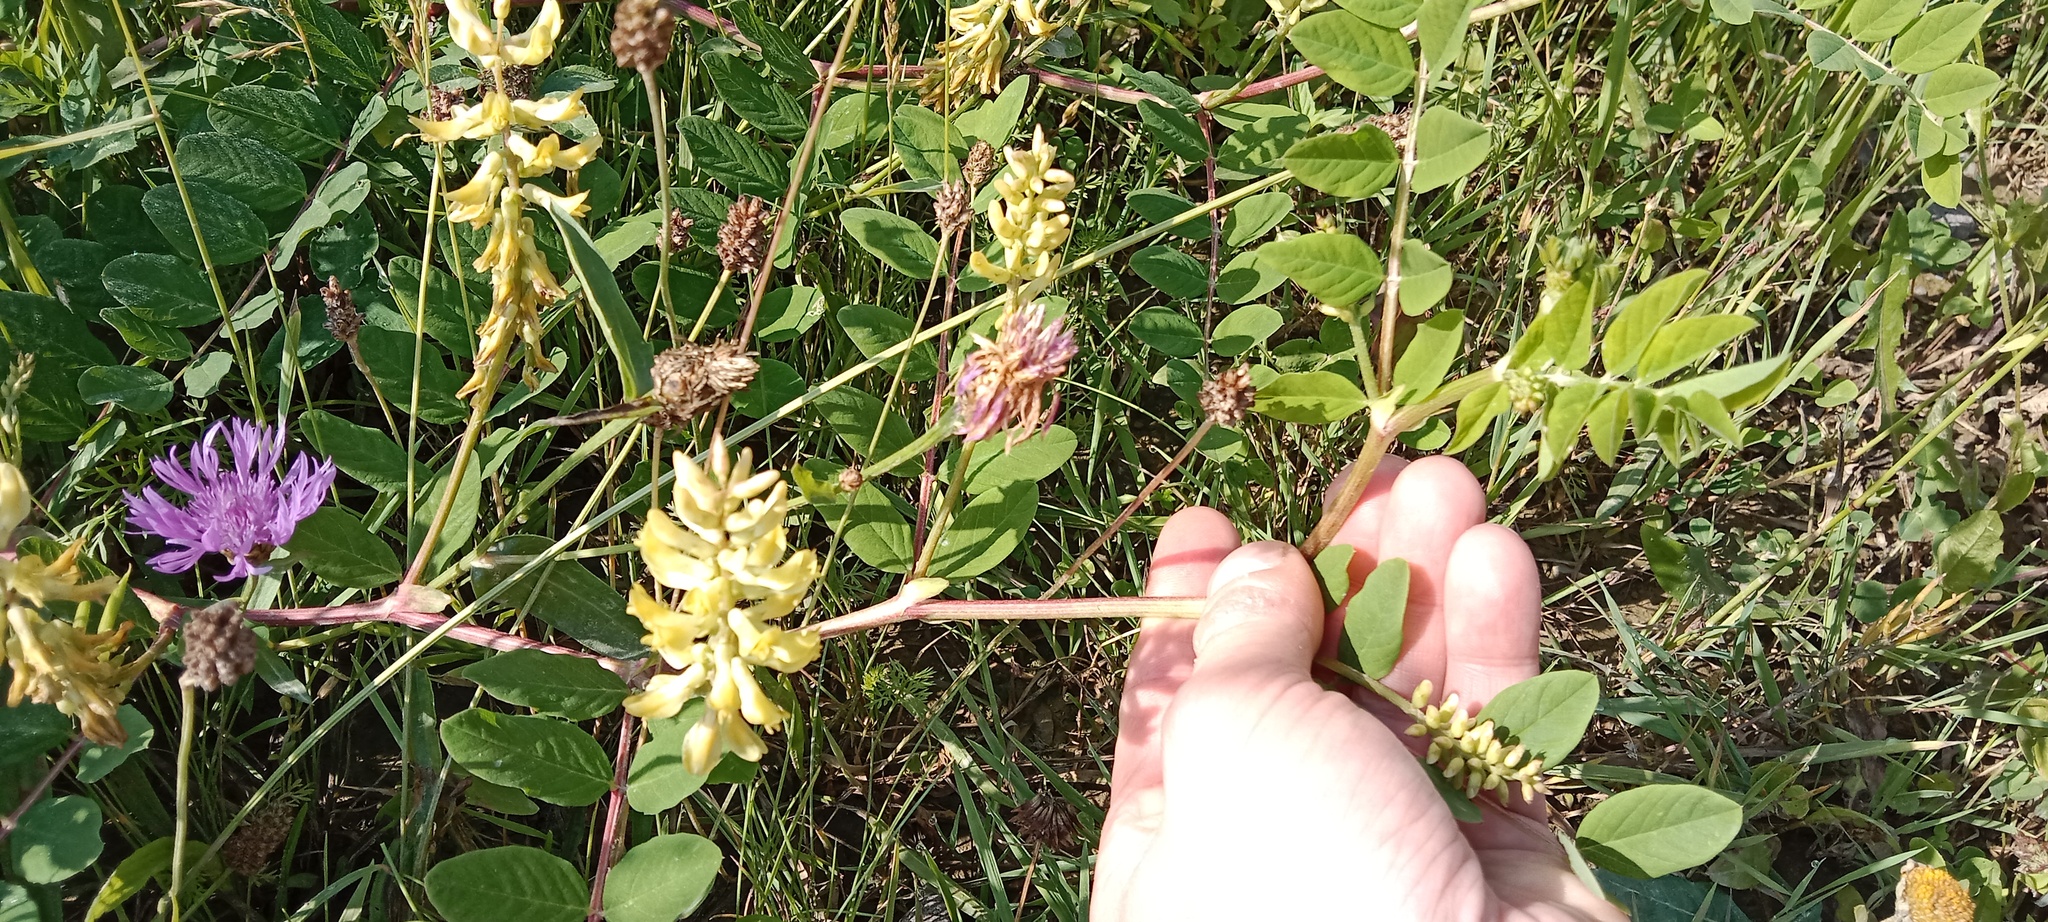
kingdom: Plantae
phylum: Tracheophyta
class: Magnoliopsida
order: Fabales
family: Fabaceae
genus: Astragalus
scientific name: Astragalus glycyphyllos
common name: Wild liquorice
